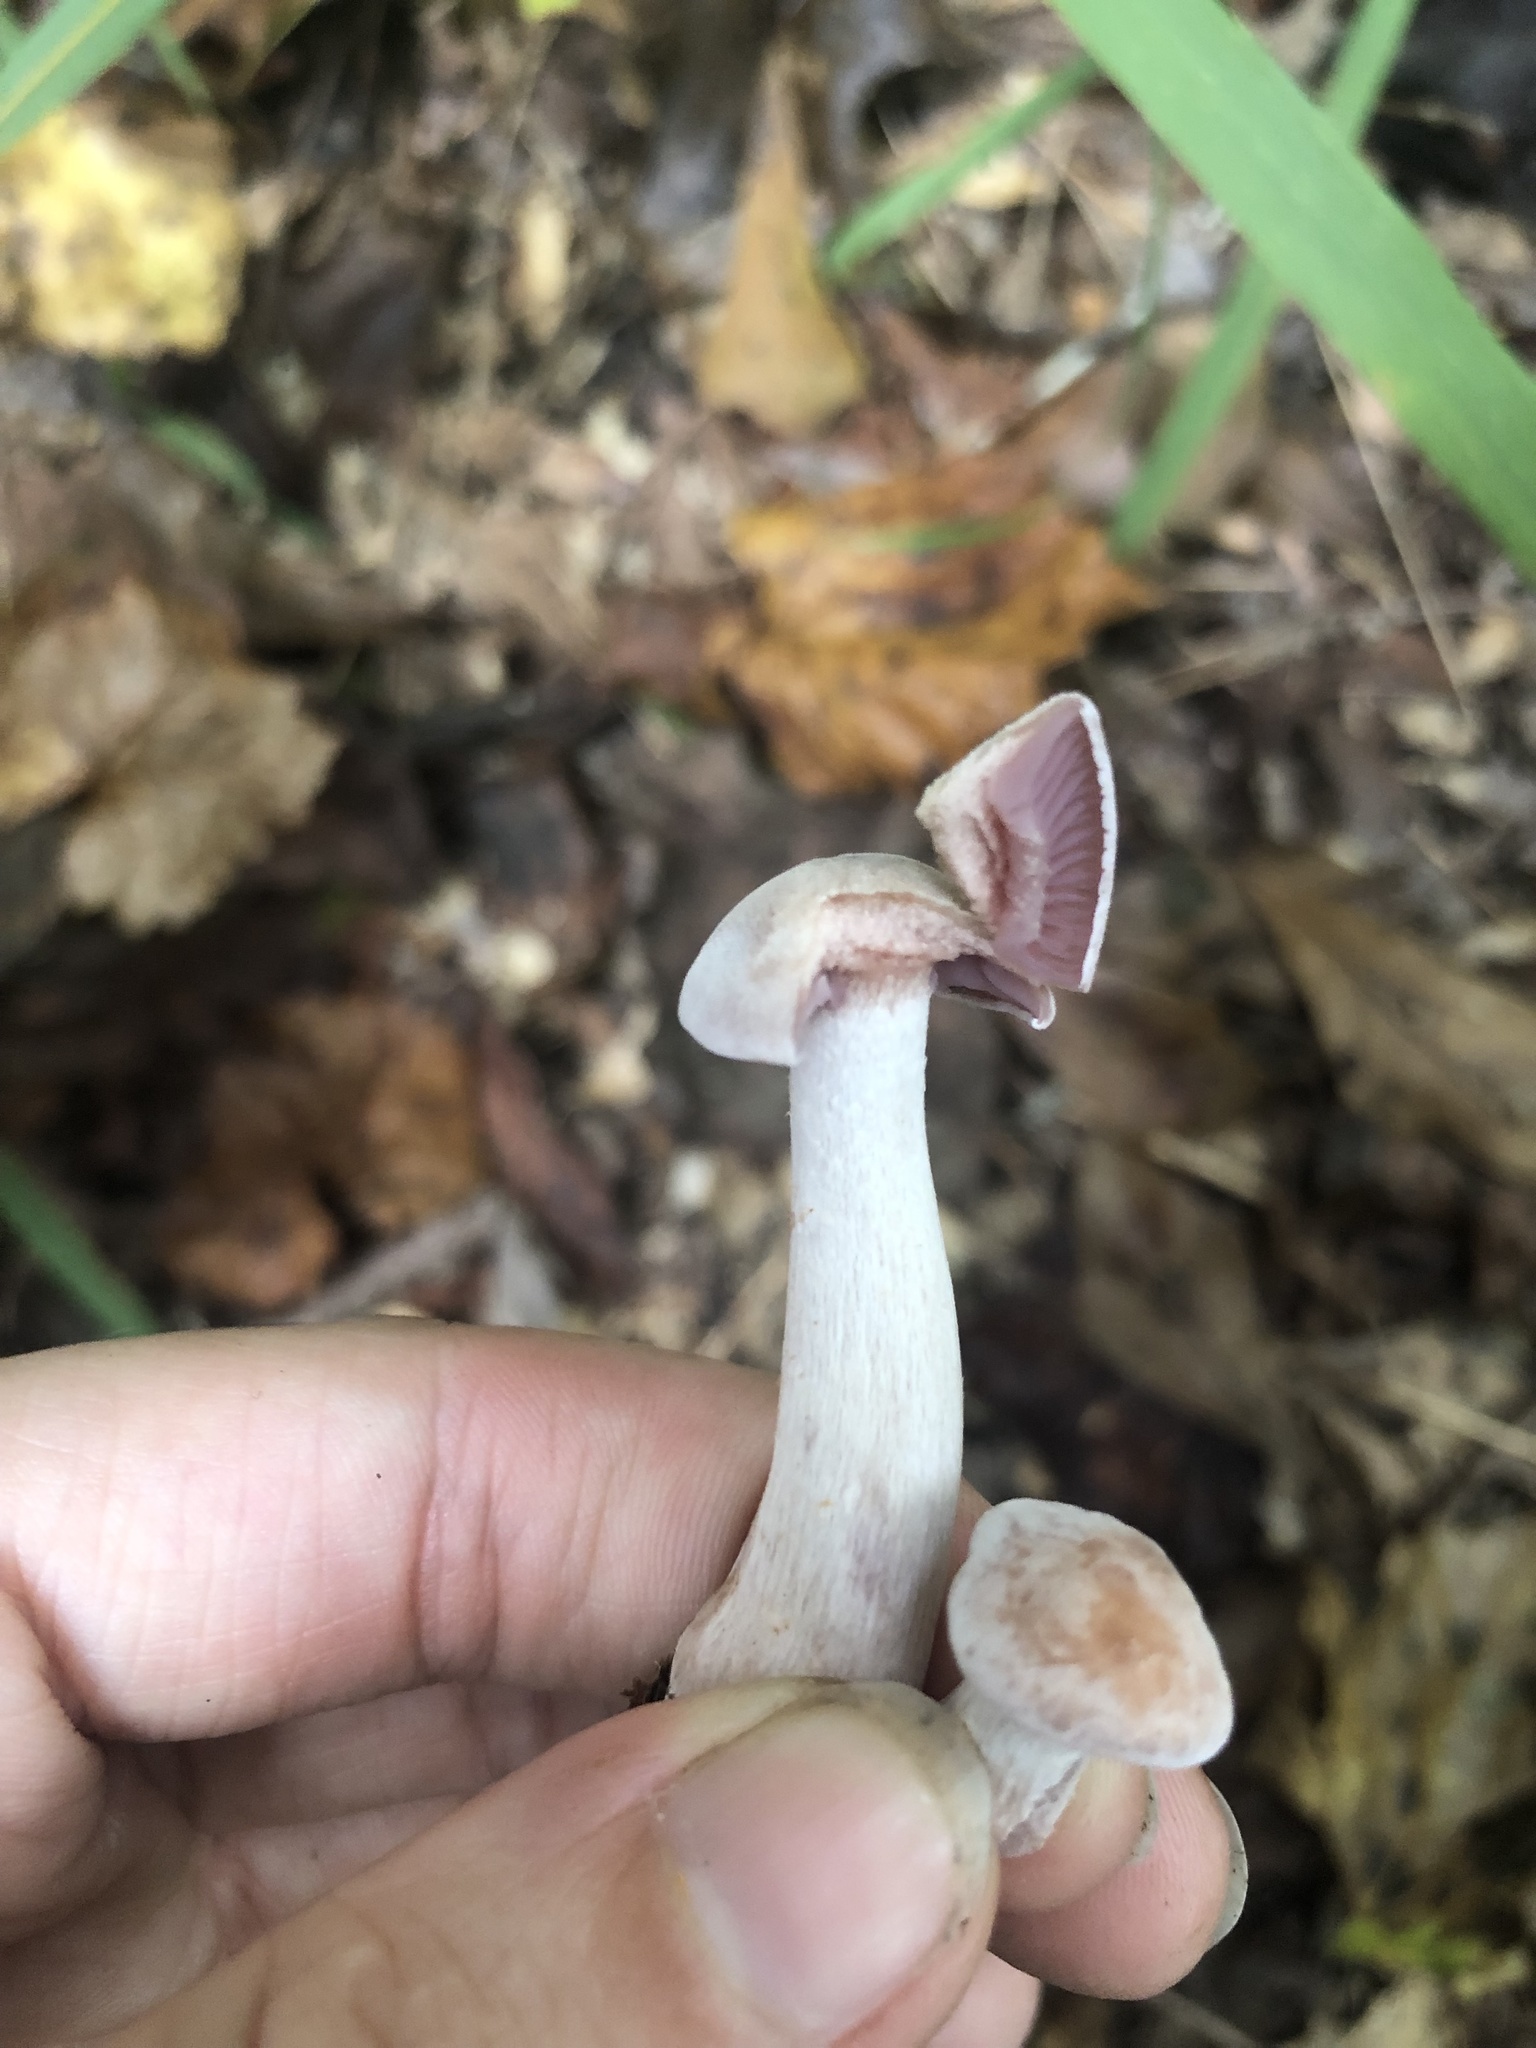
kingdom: Fungi
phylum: Basidiomycota
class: Agaricomycetes
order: Agaricales
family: Hydnangiaceae
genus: Laccaria
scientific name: Laccaria ochropurpurea
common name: Purple laccaria
